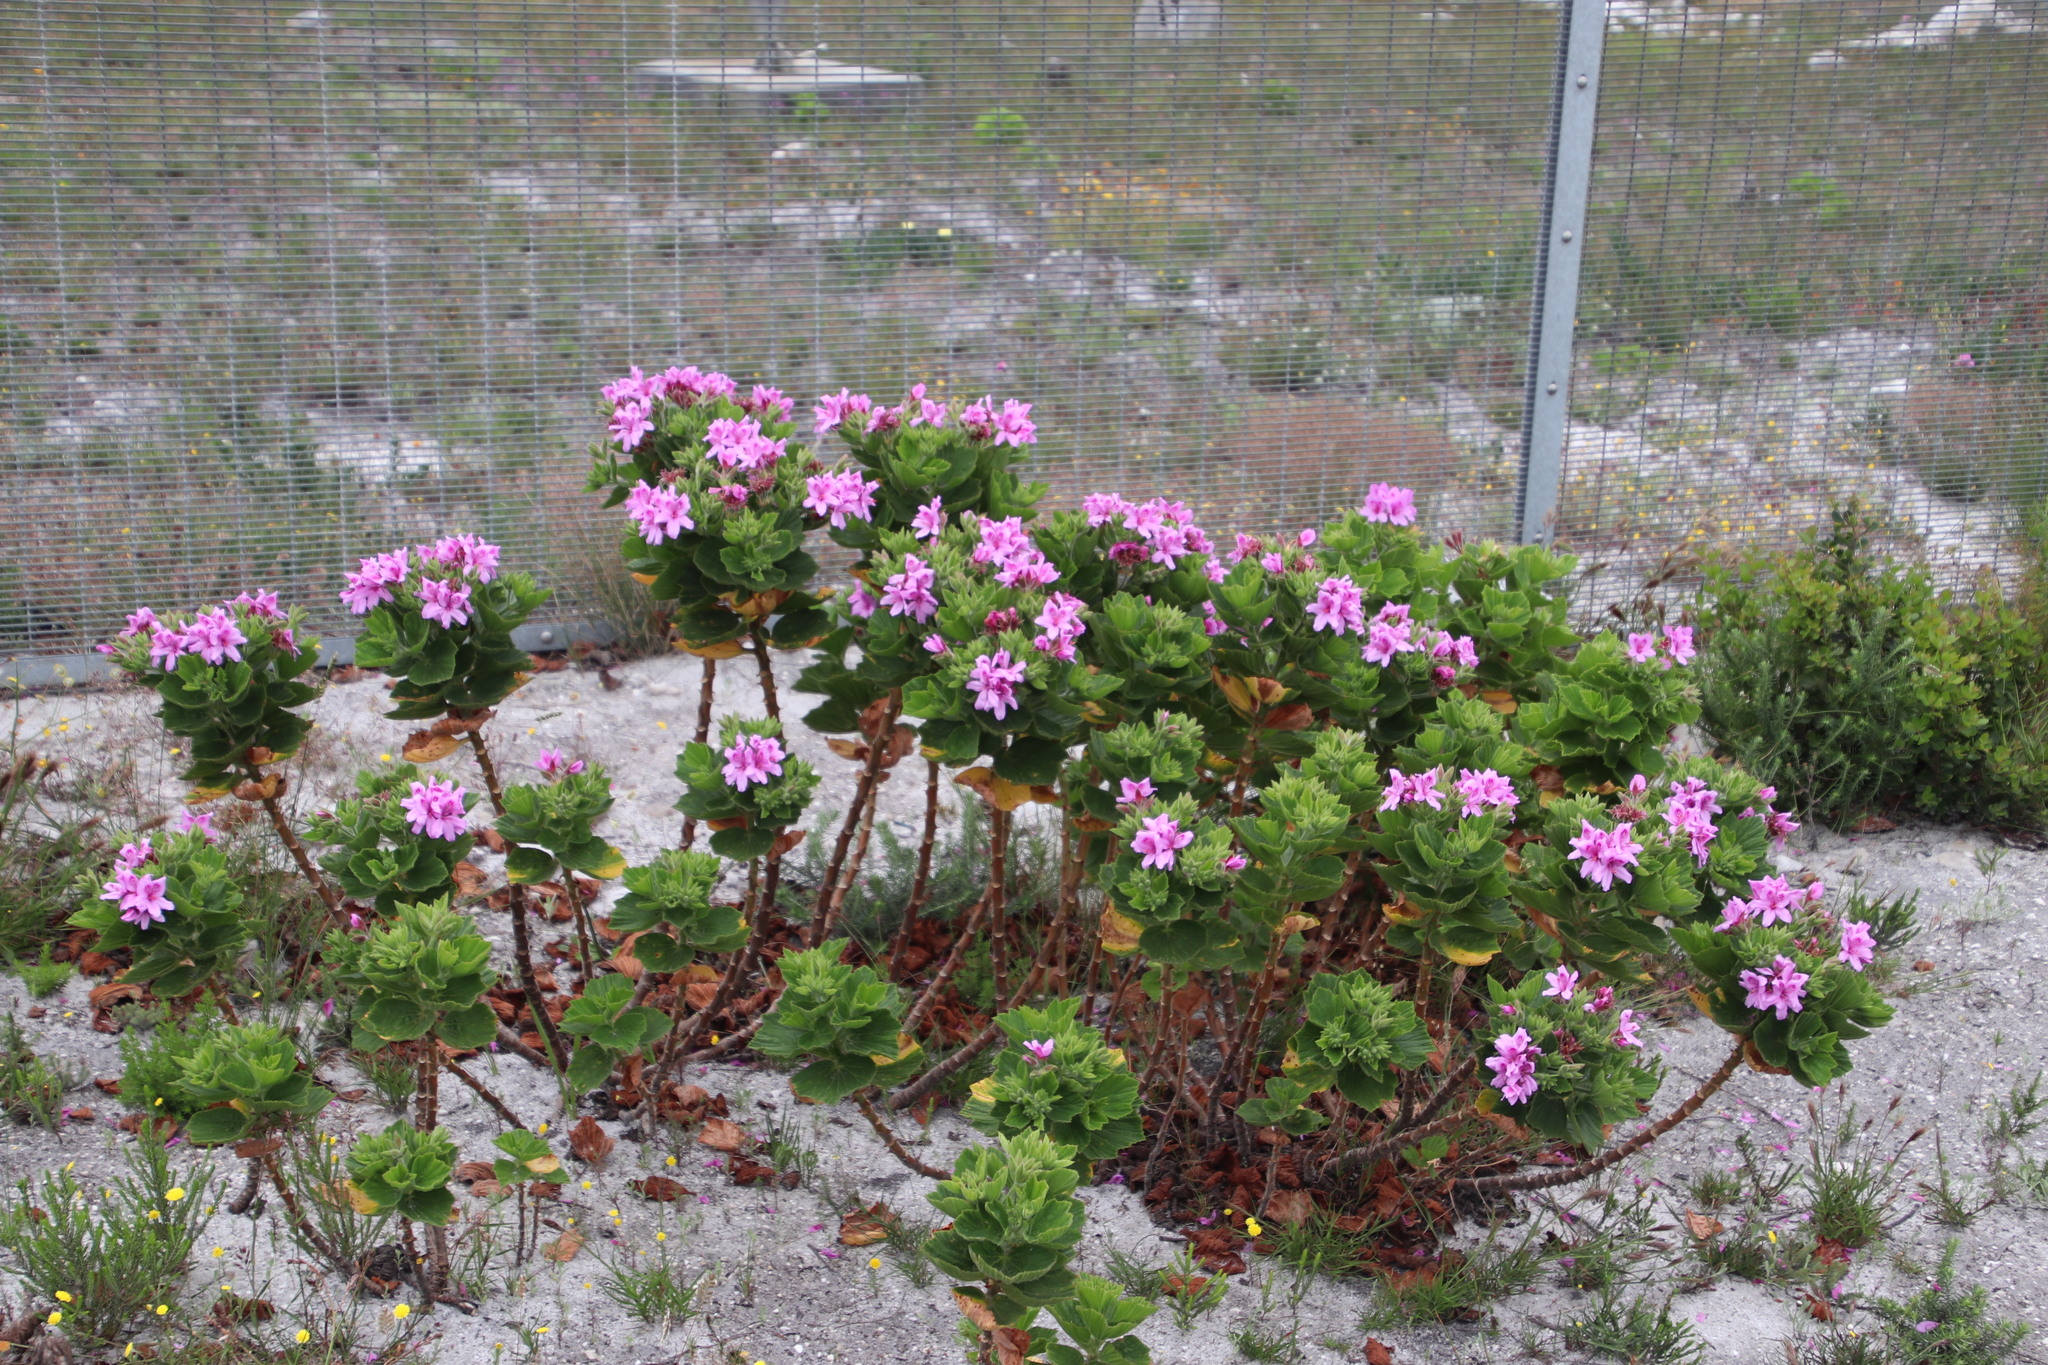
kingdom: Plantae
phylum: Tracheophyta
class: Magnoliopsida
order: Geraniales
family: Geraniaceae
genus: Pelargonium
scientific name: Pelargonium cucullatum
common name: Tree pelargonium
